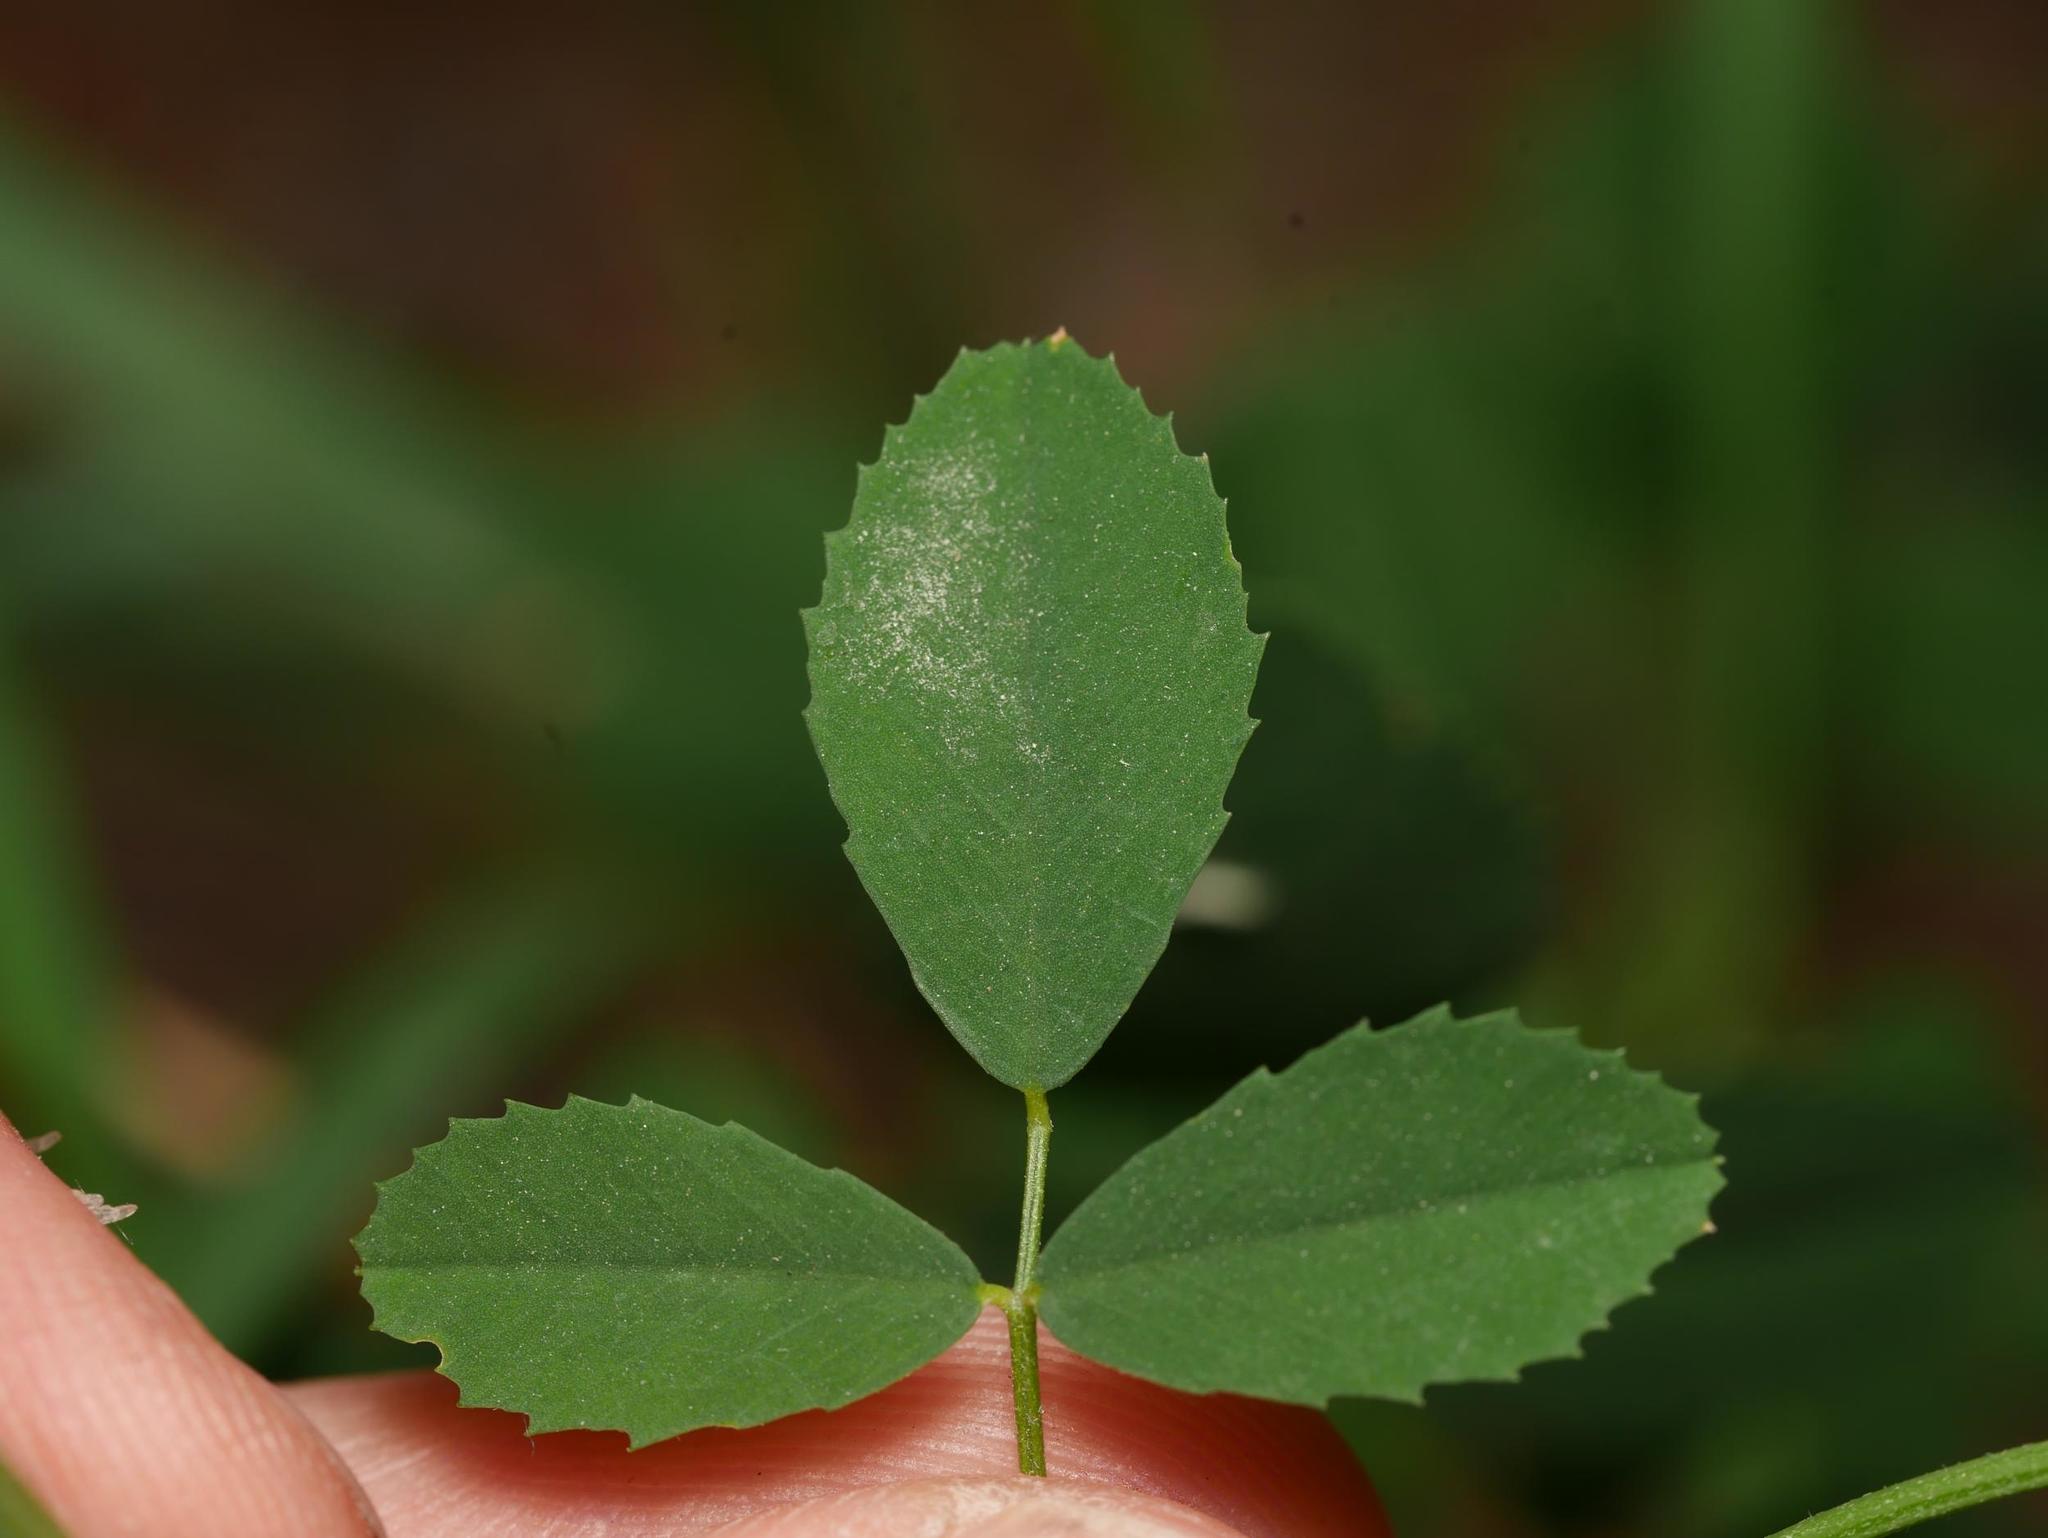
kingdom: Plantae
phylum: Tracheophyta
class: Magnoliopsida
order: Fabales
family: Fabaceae
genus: Melilotus
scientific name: Melilotus officinalis
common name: Sweetclover
